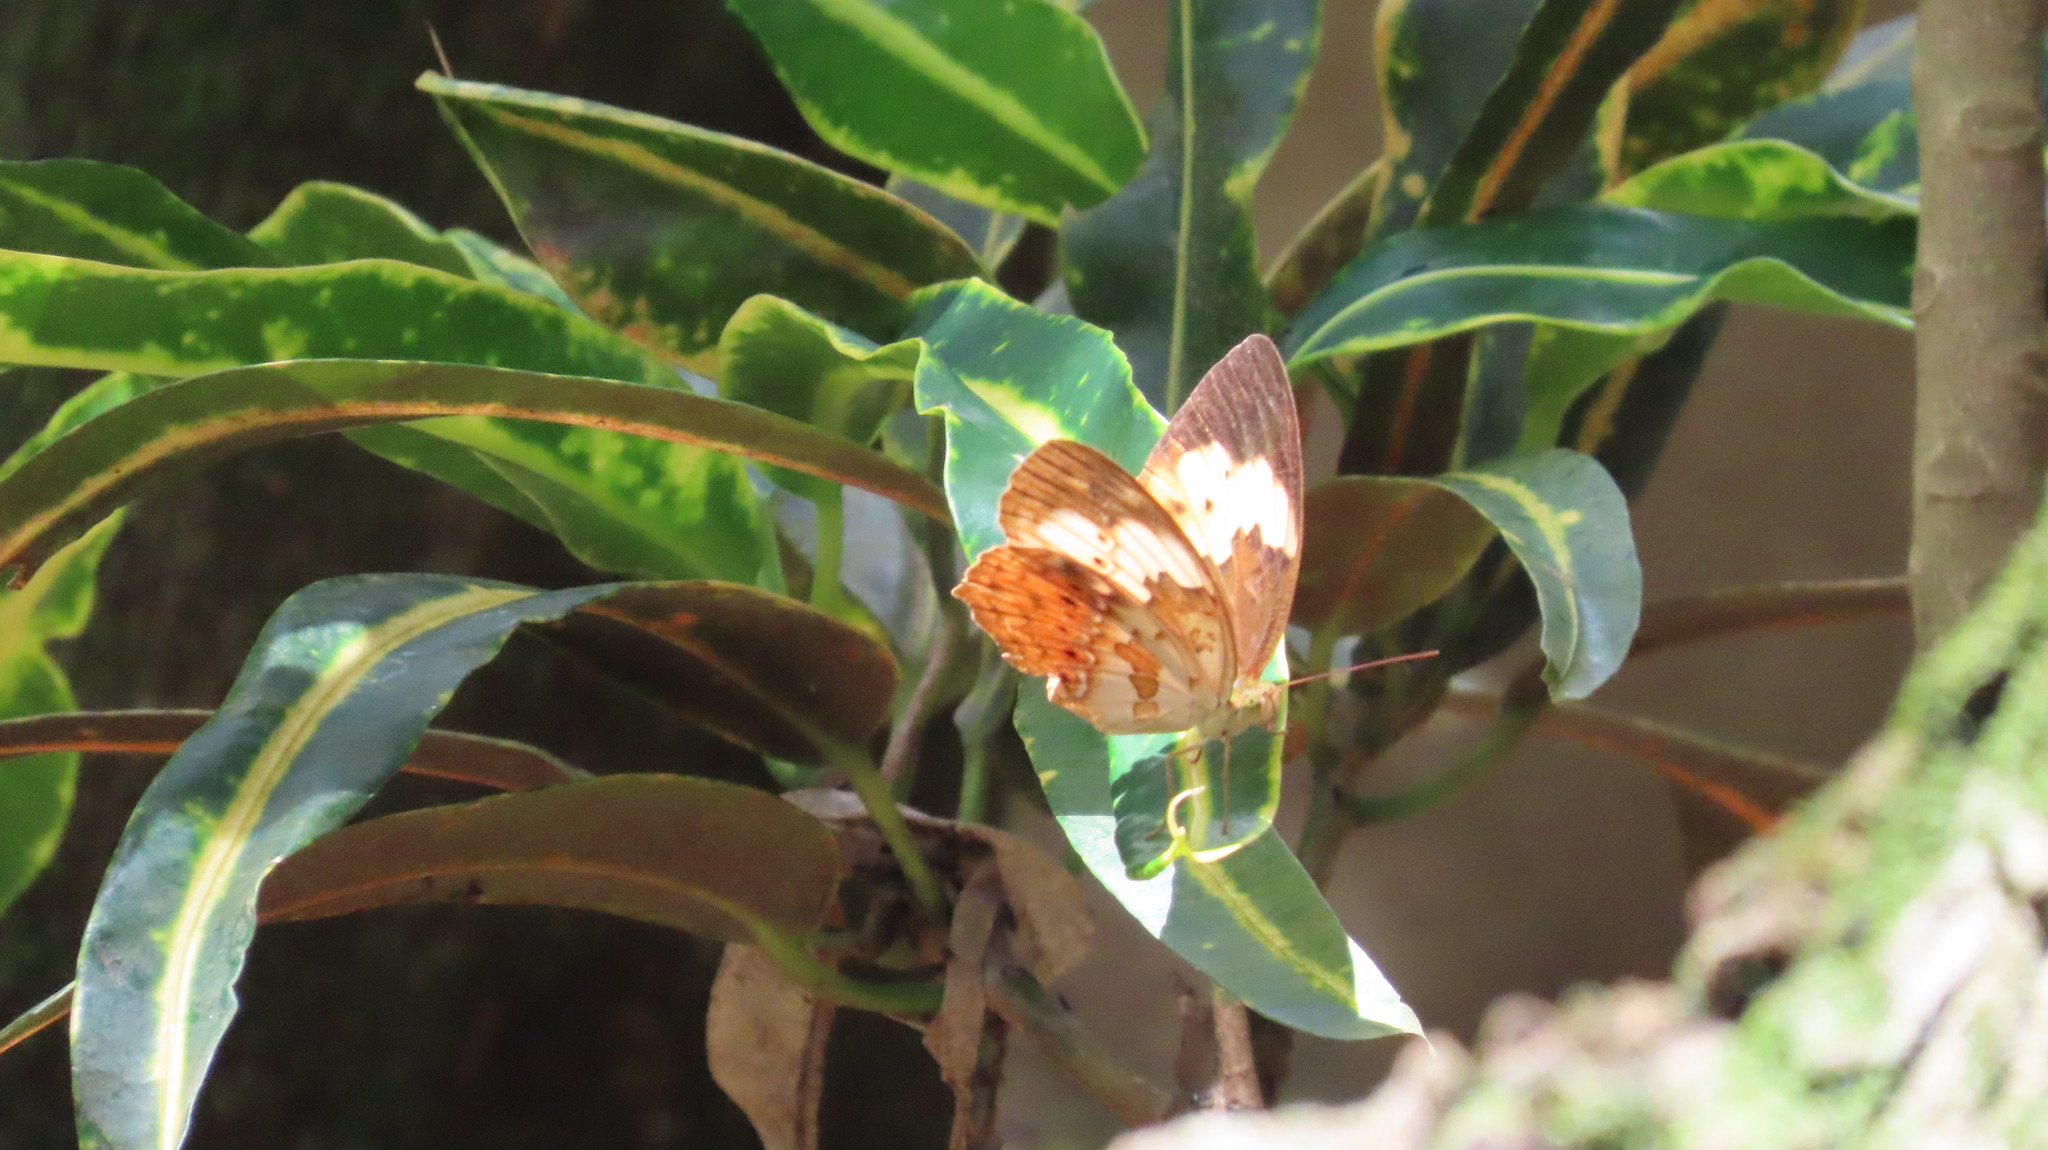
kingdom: Animalia
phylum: Arthropoda
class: Insecta
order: Lepidoptera
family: Nymphalidae
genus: Cupha
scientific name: Cupha erymanthis
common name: Rustic
